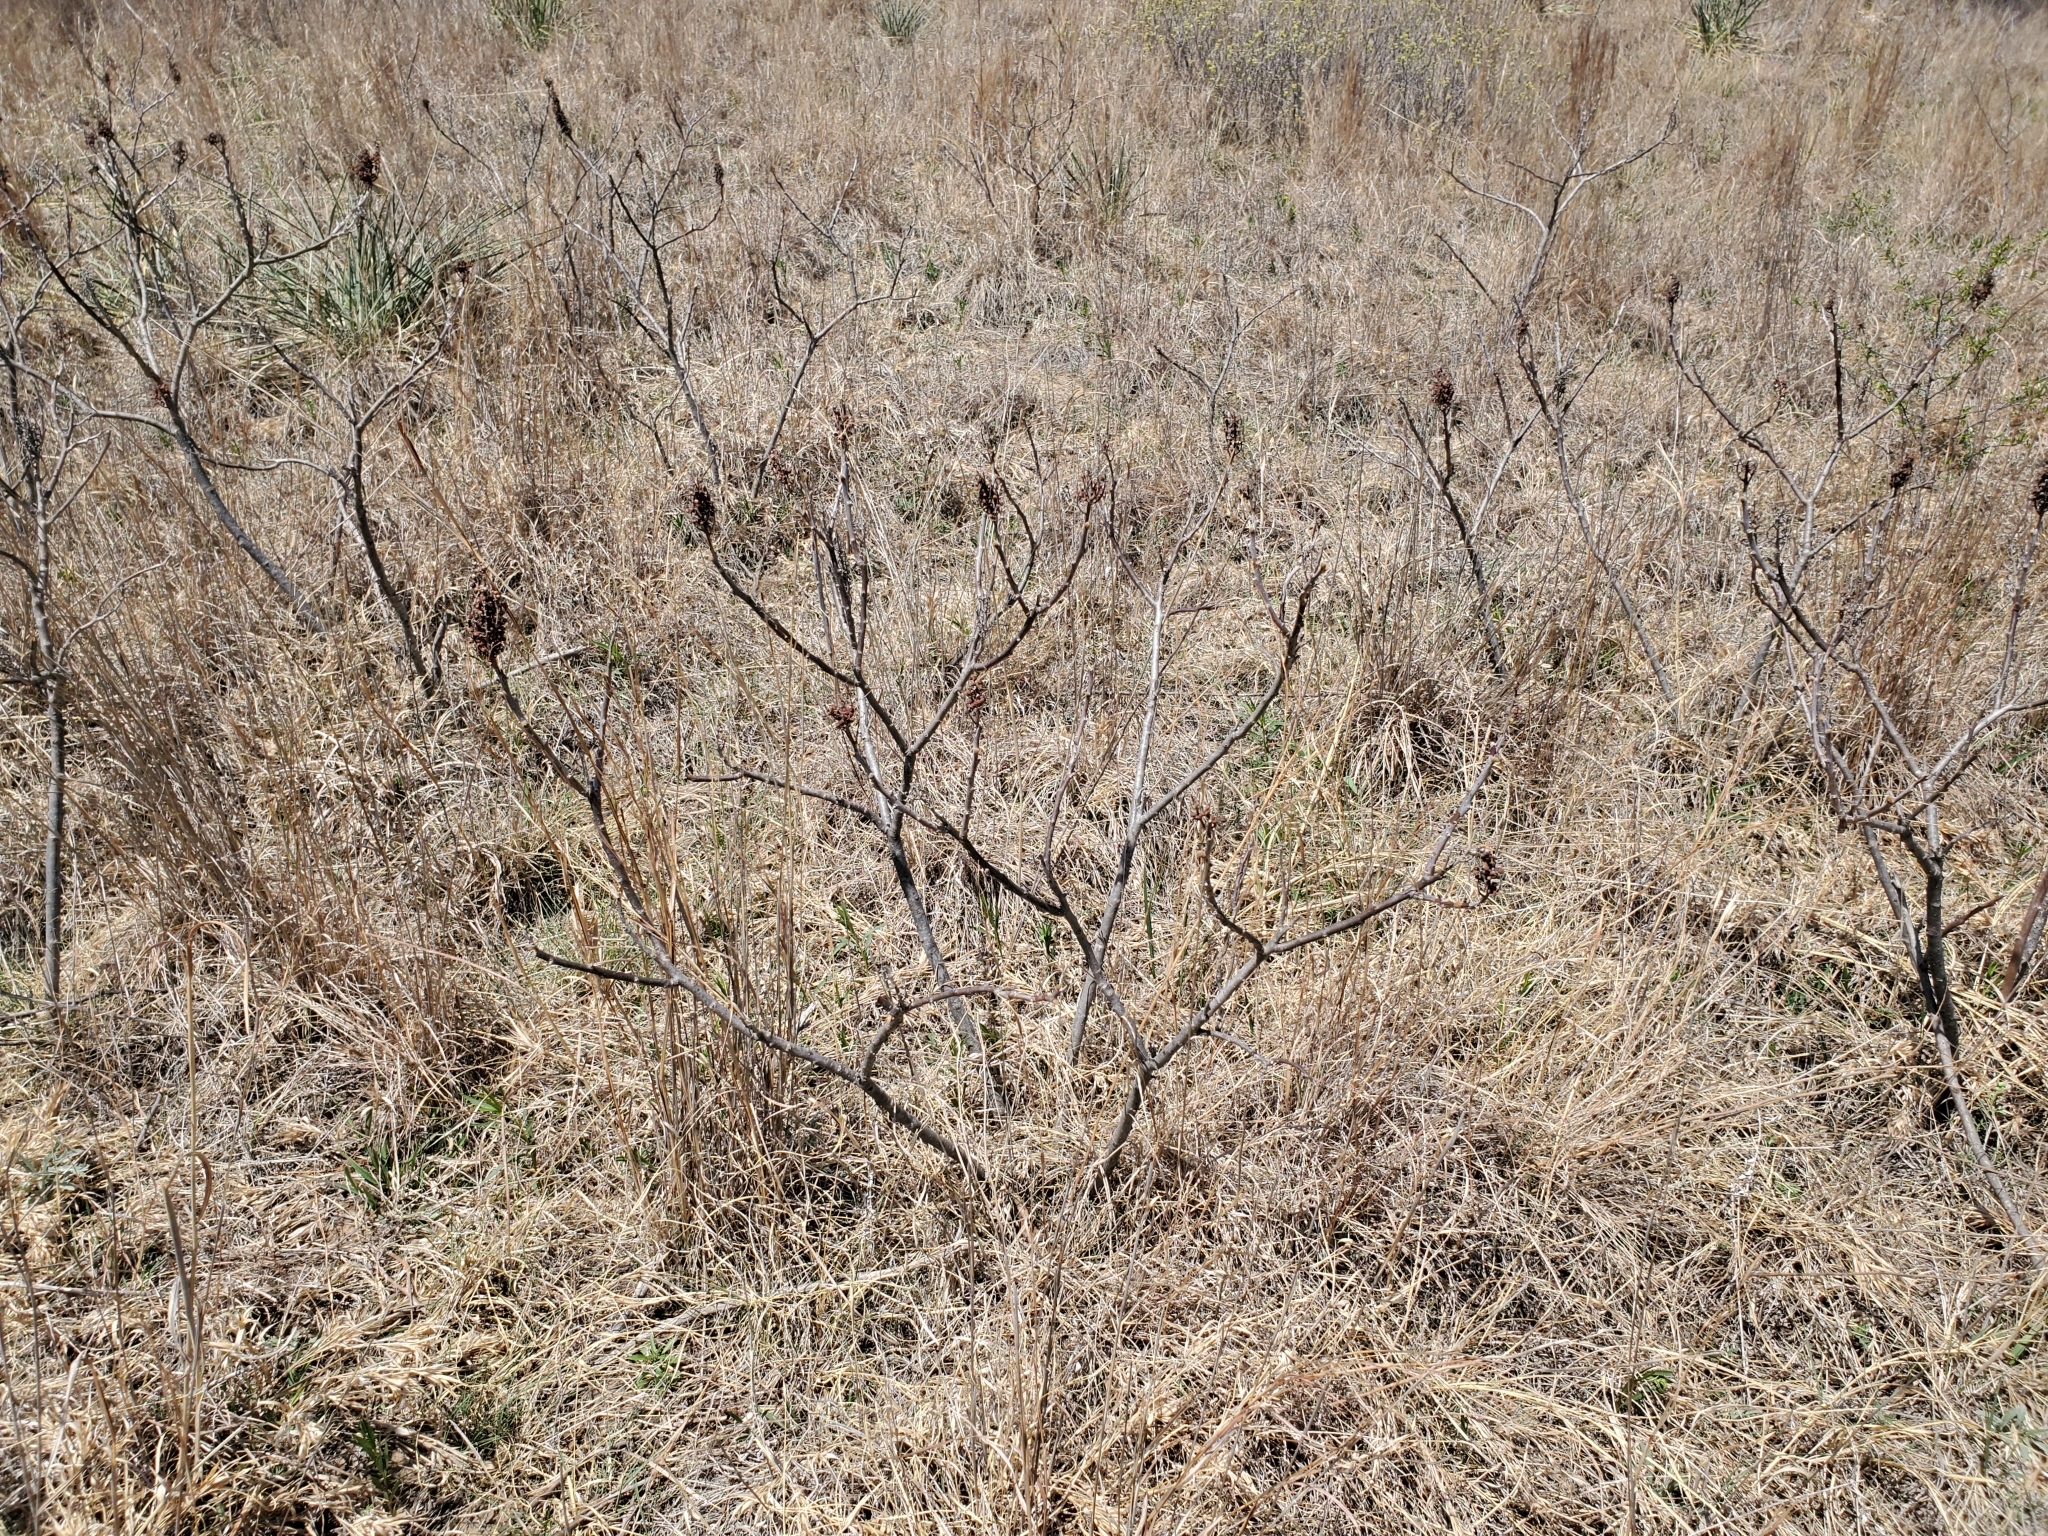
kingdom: Plantae
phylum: Tracheophyta
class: Magnoliopsida
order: Sapindales
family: Anacardiaceae
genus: Rhus
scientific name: Rhus glabra
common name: Scarlet sumac
